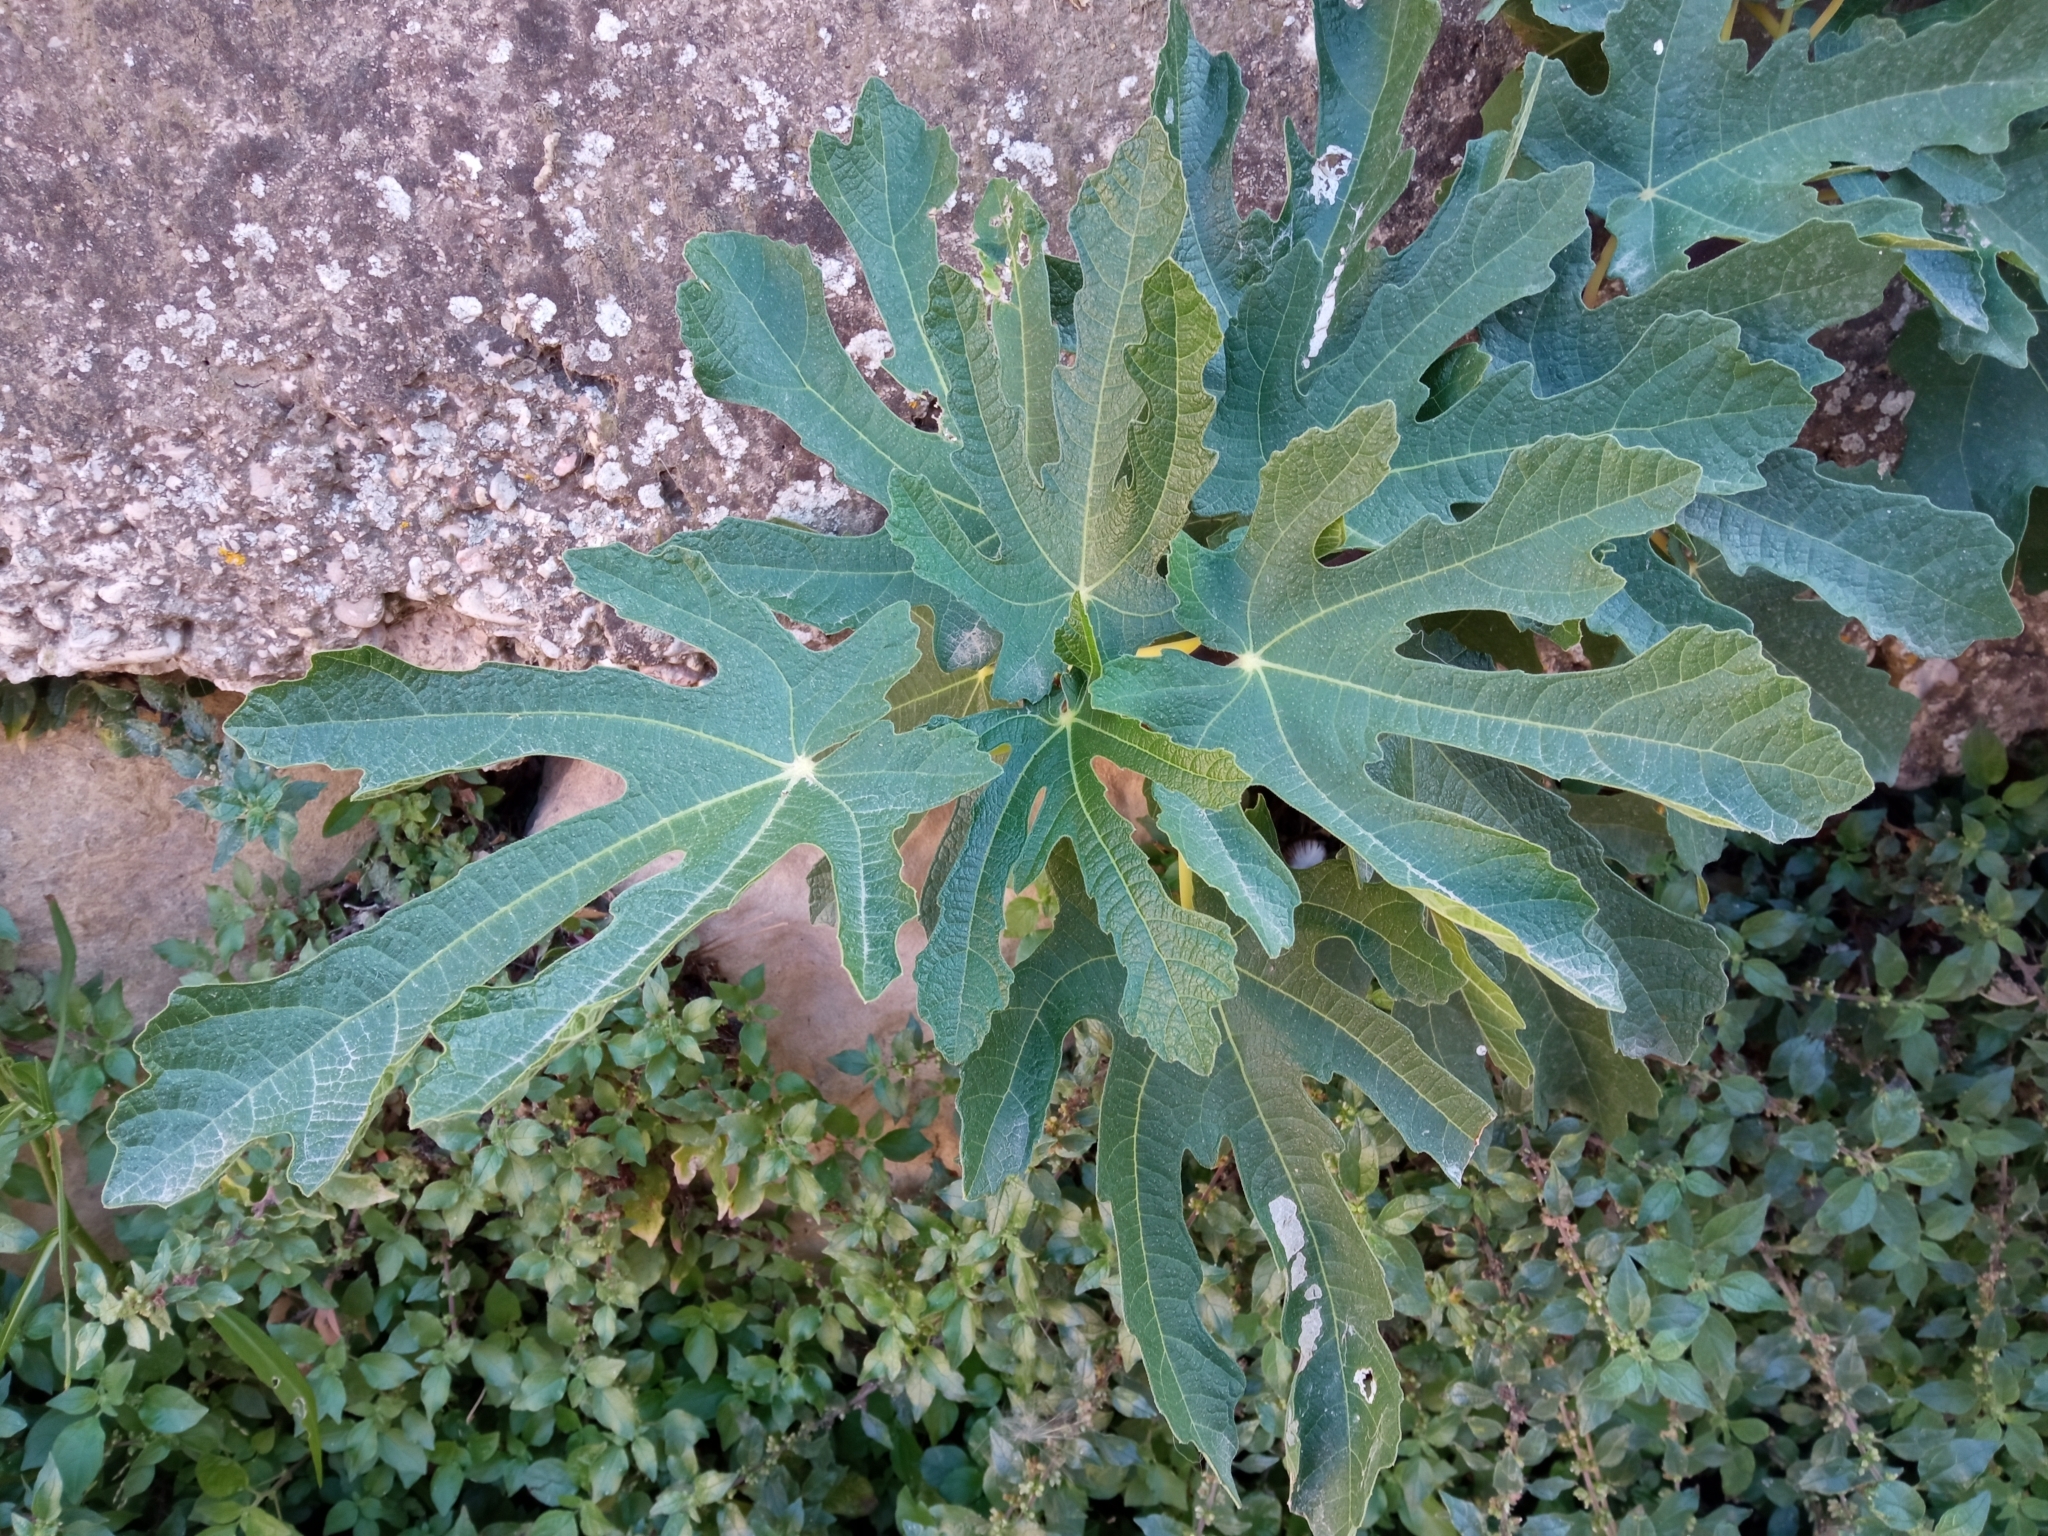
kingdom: Plantae
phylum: Tracheophyta
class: Magnoliopsida
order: Rosales
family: Moraceae
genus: Ficus
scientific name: Ficus carica
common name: Fig
